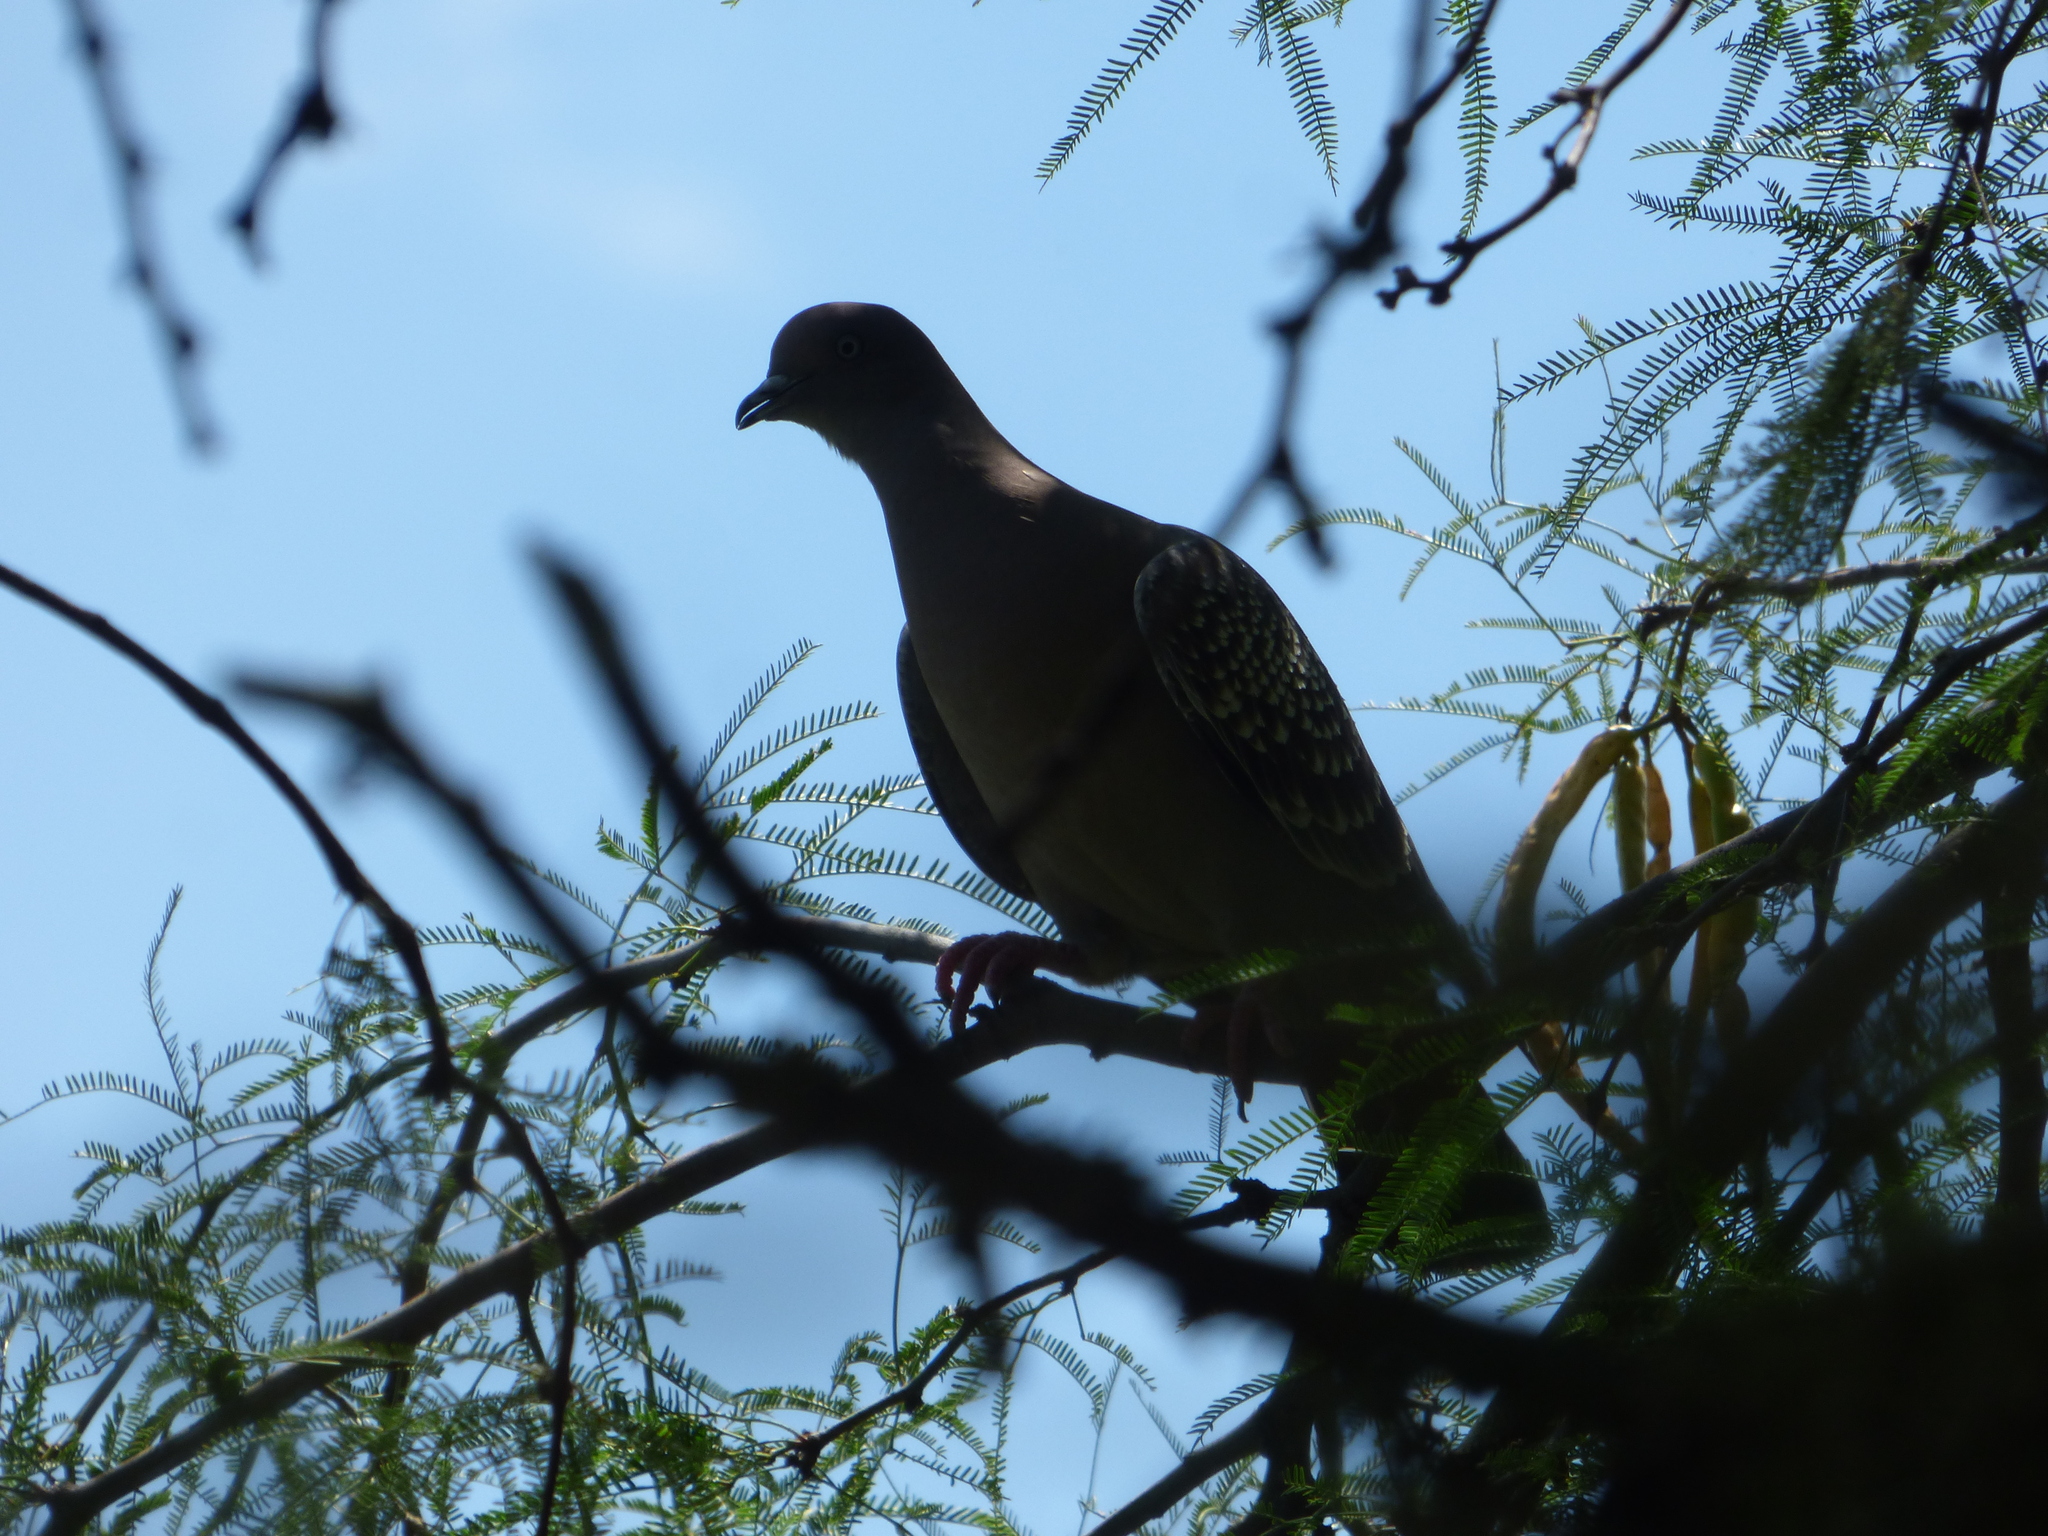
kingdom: Animalia
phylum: Chordata
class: Aves
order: Columbiformes
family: Columbidae
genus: Patagioenas
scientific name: Patagioenas maculosa
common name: Spot-winged pigeon
